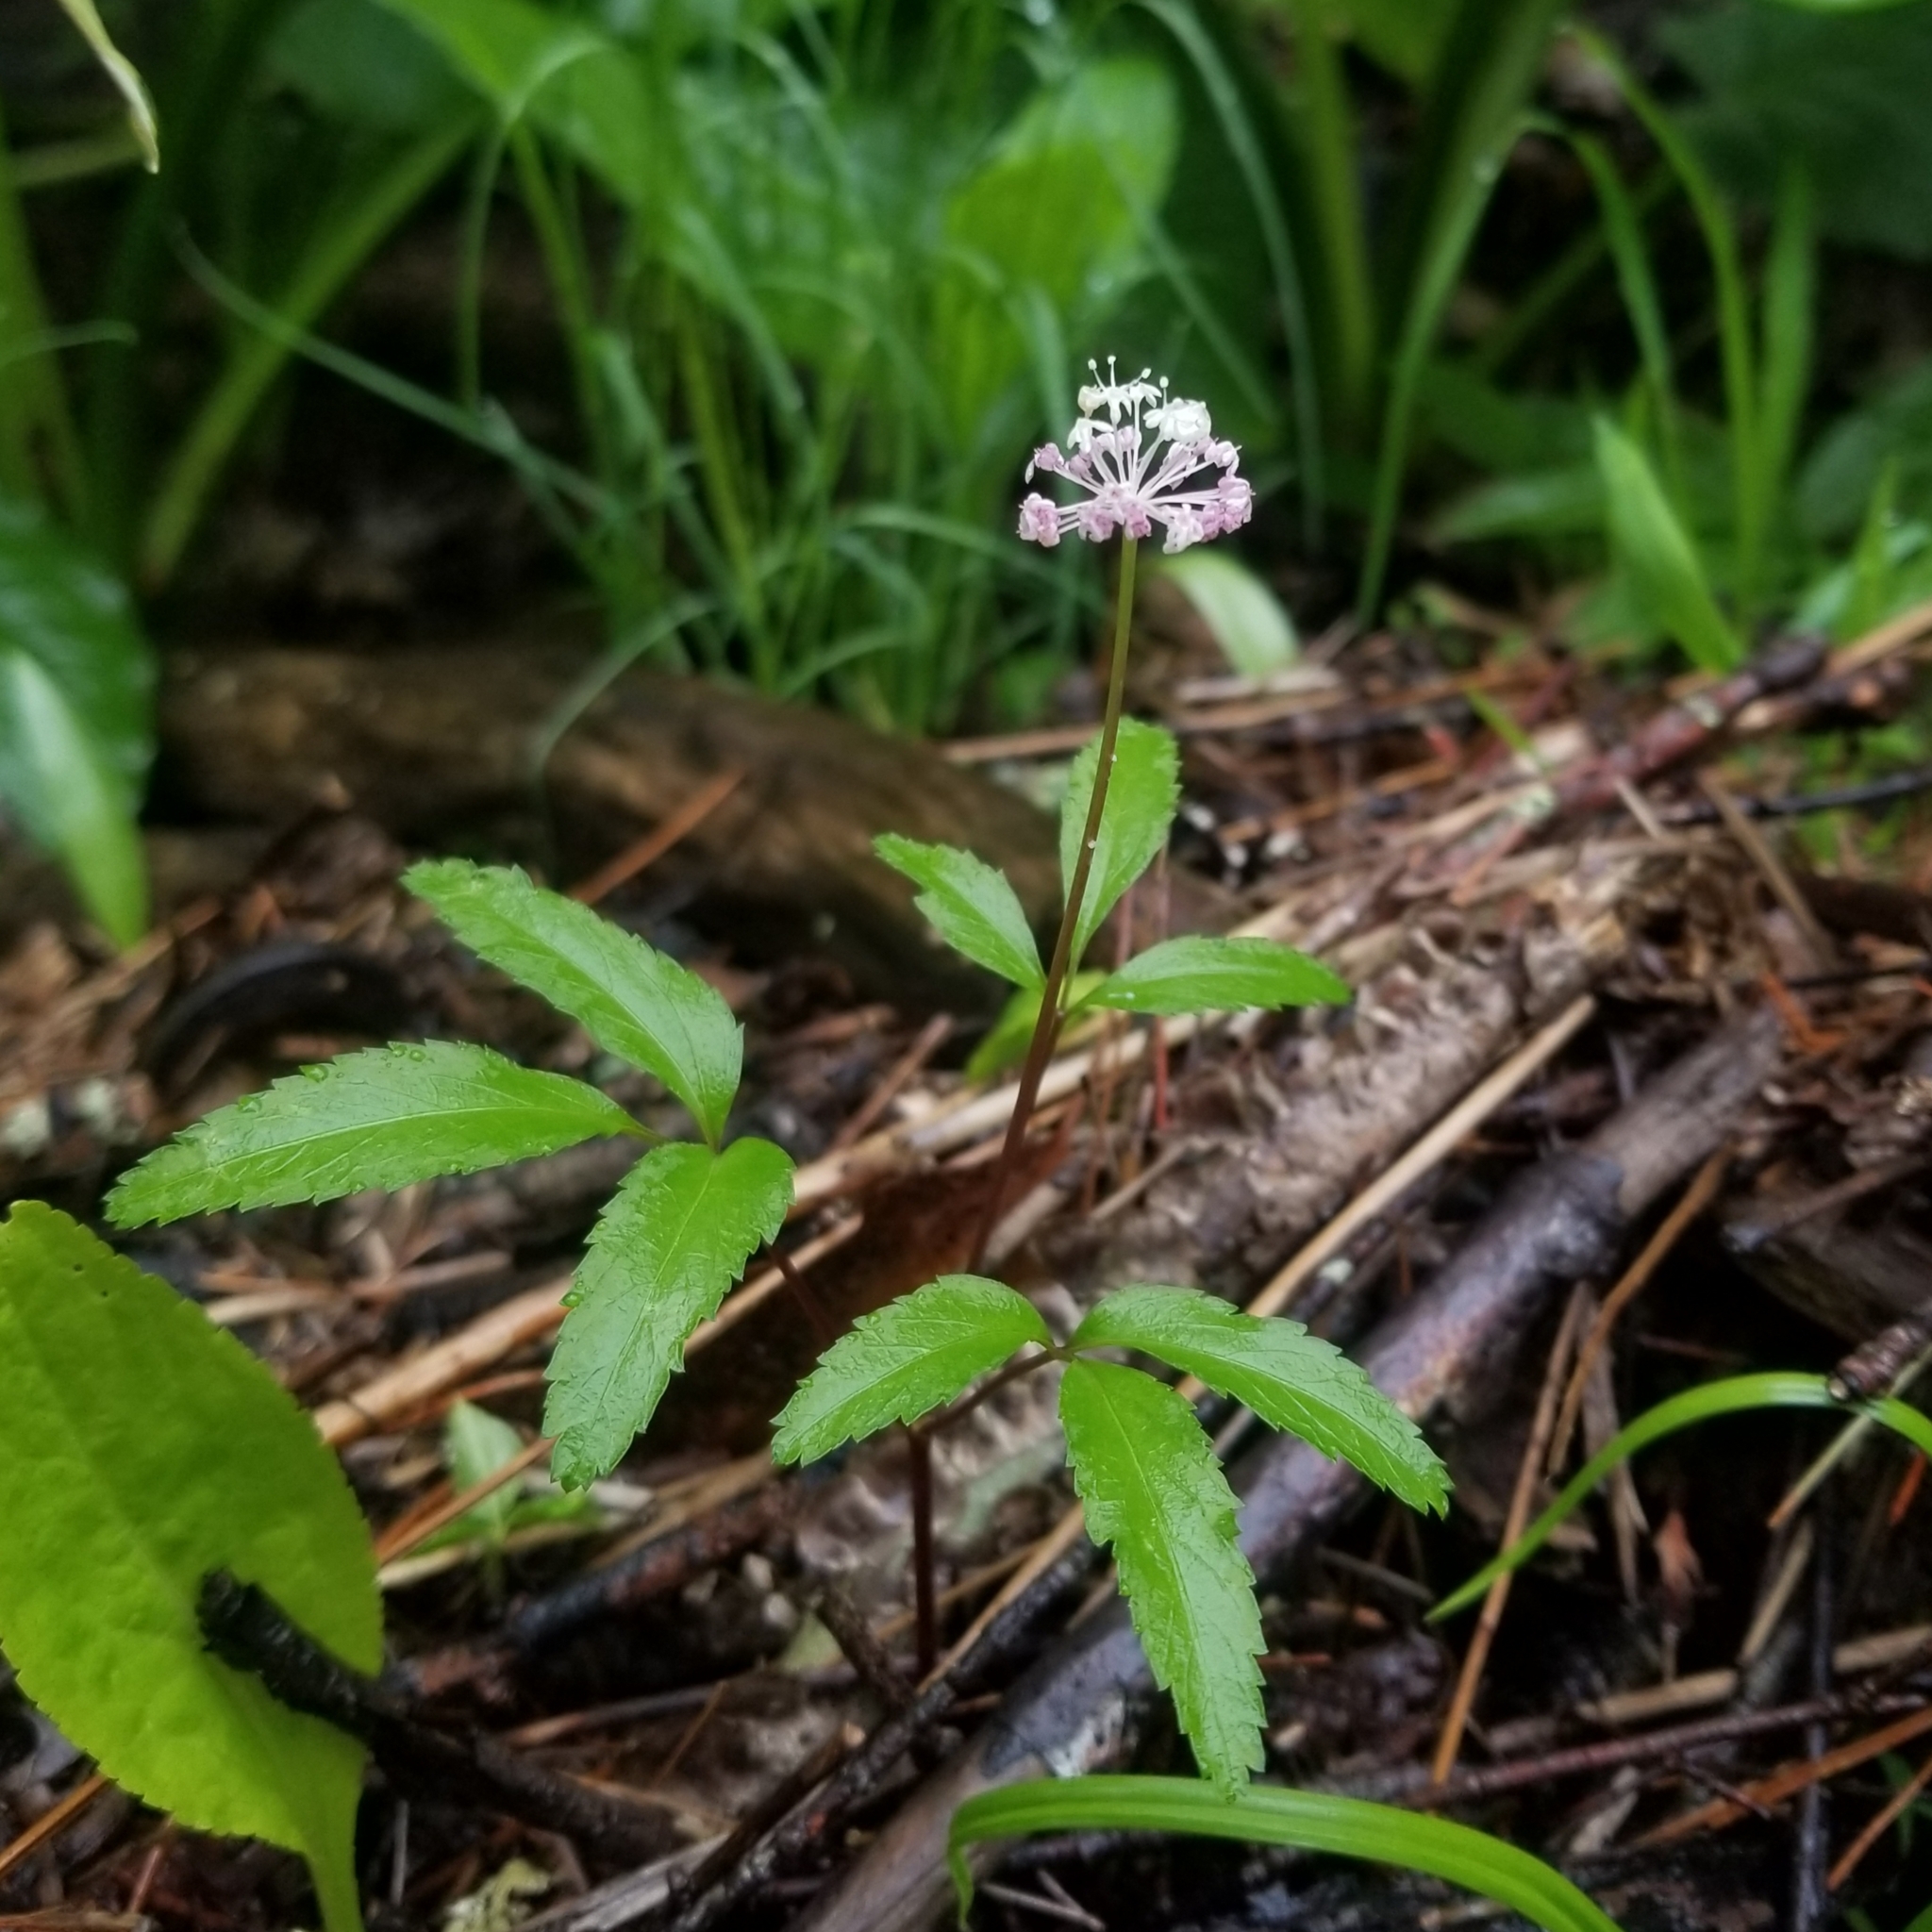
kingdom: Plantae
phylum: Tracheophyta
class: Magnoliopsida
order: Apiales
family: Araliaceae
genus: Panax
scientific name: Panax trifolius
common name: Dwarf ginseng
